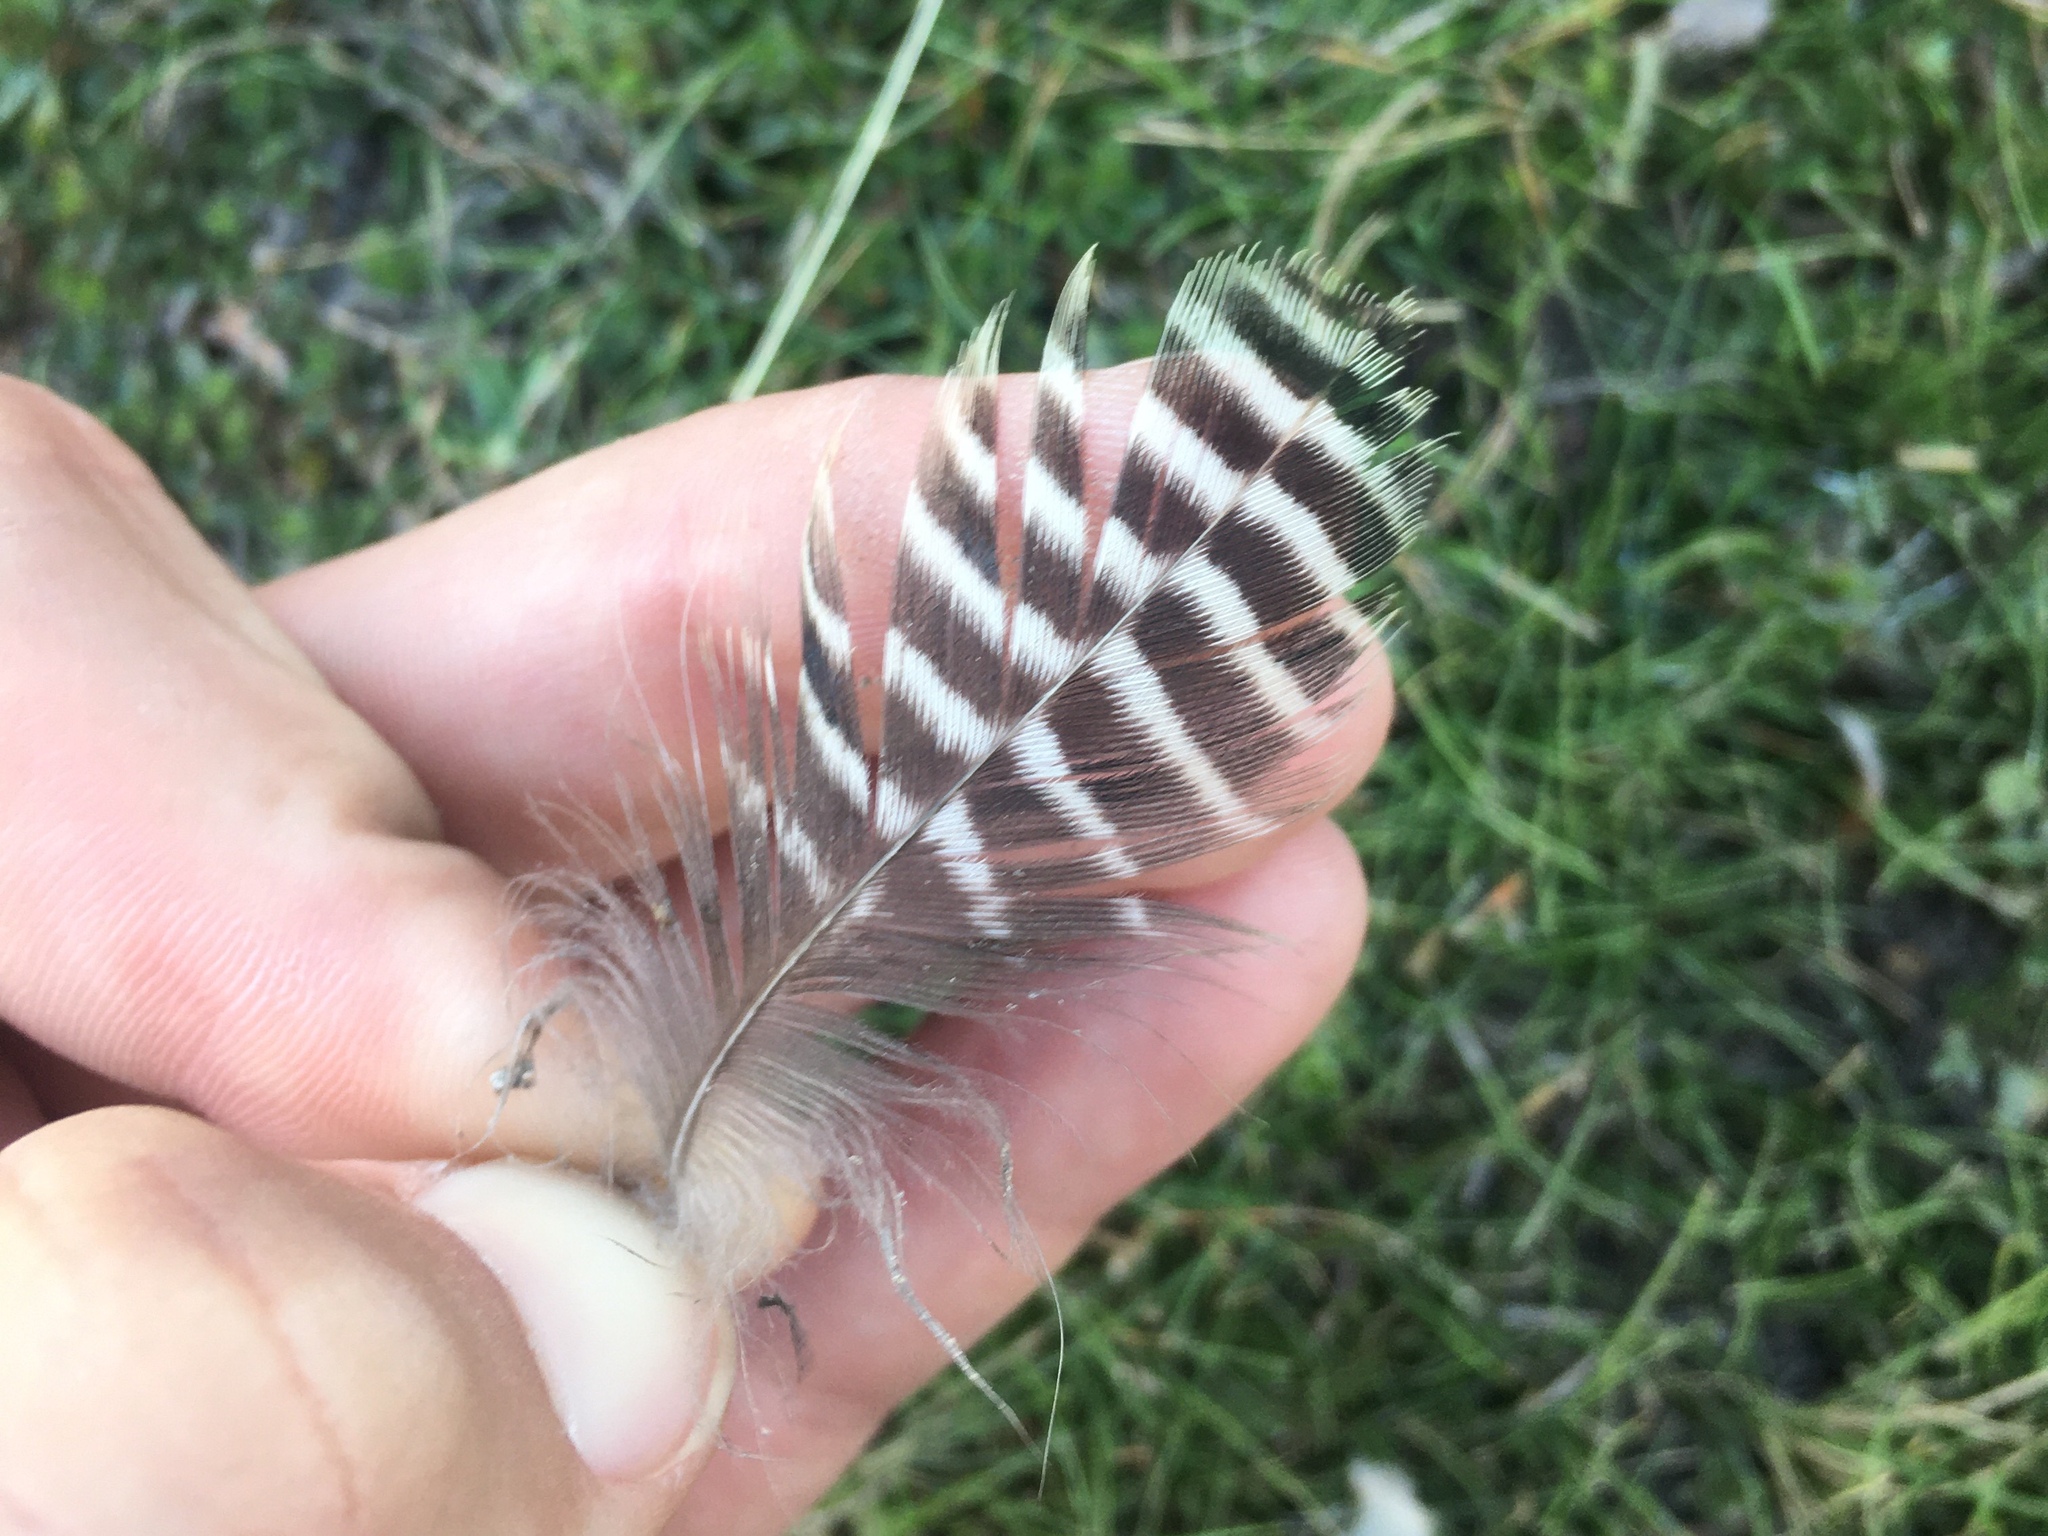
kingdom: Animalia
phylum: Chordata
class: Aves
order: Anseriformes
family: Anatidae
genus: Dendrocygna
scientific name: Dendrocygna viduata
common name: White-faced whistling duck
